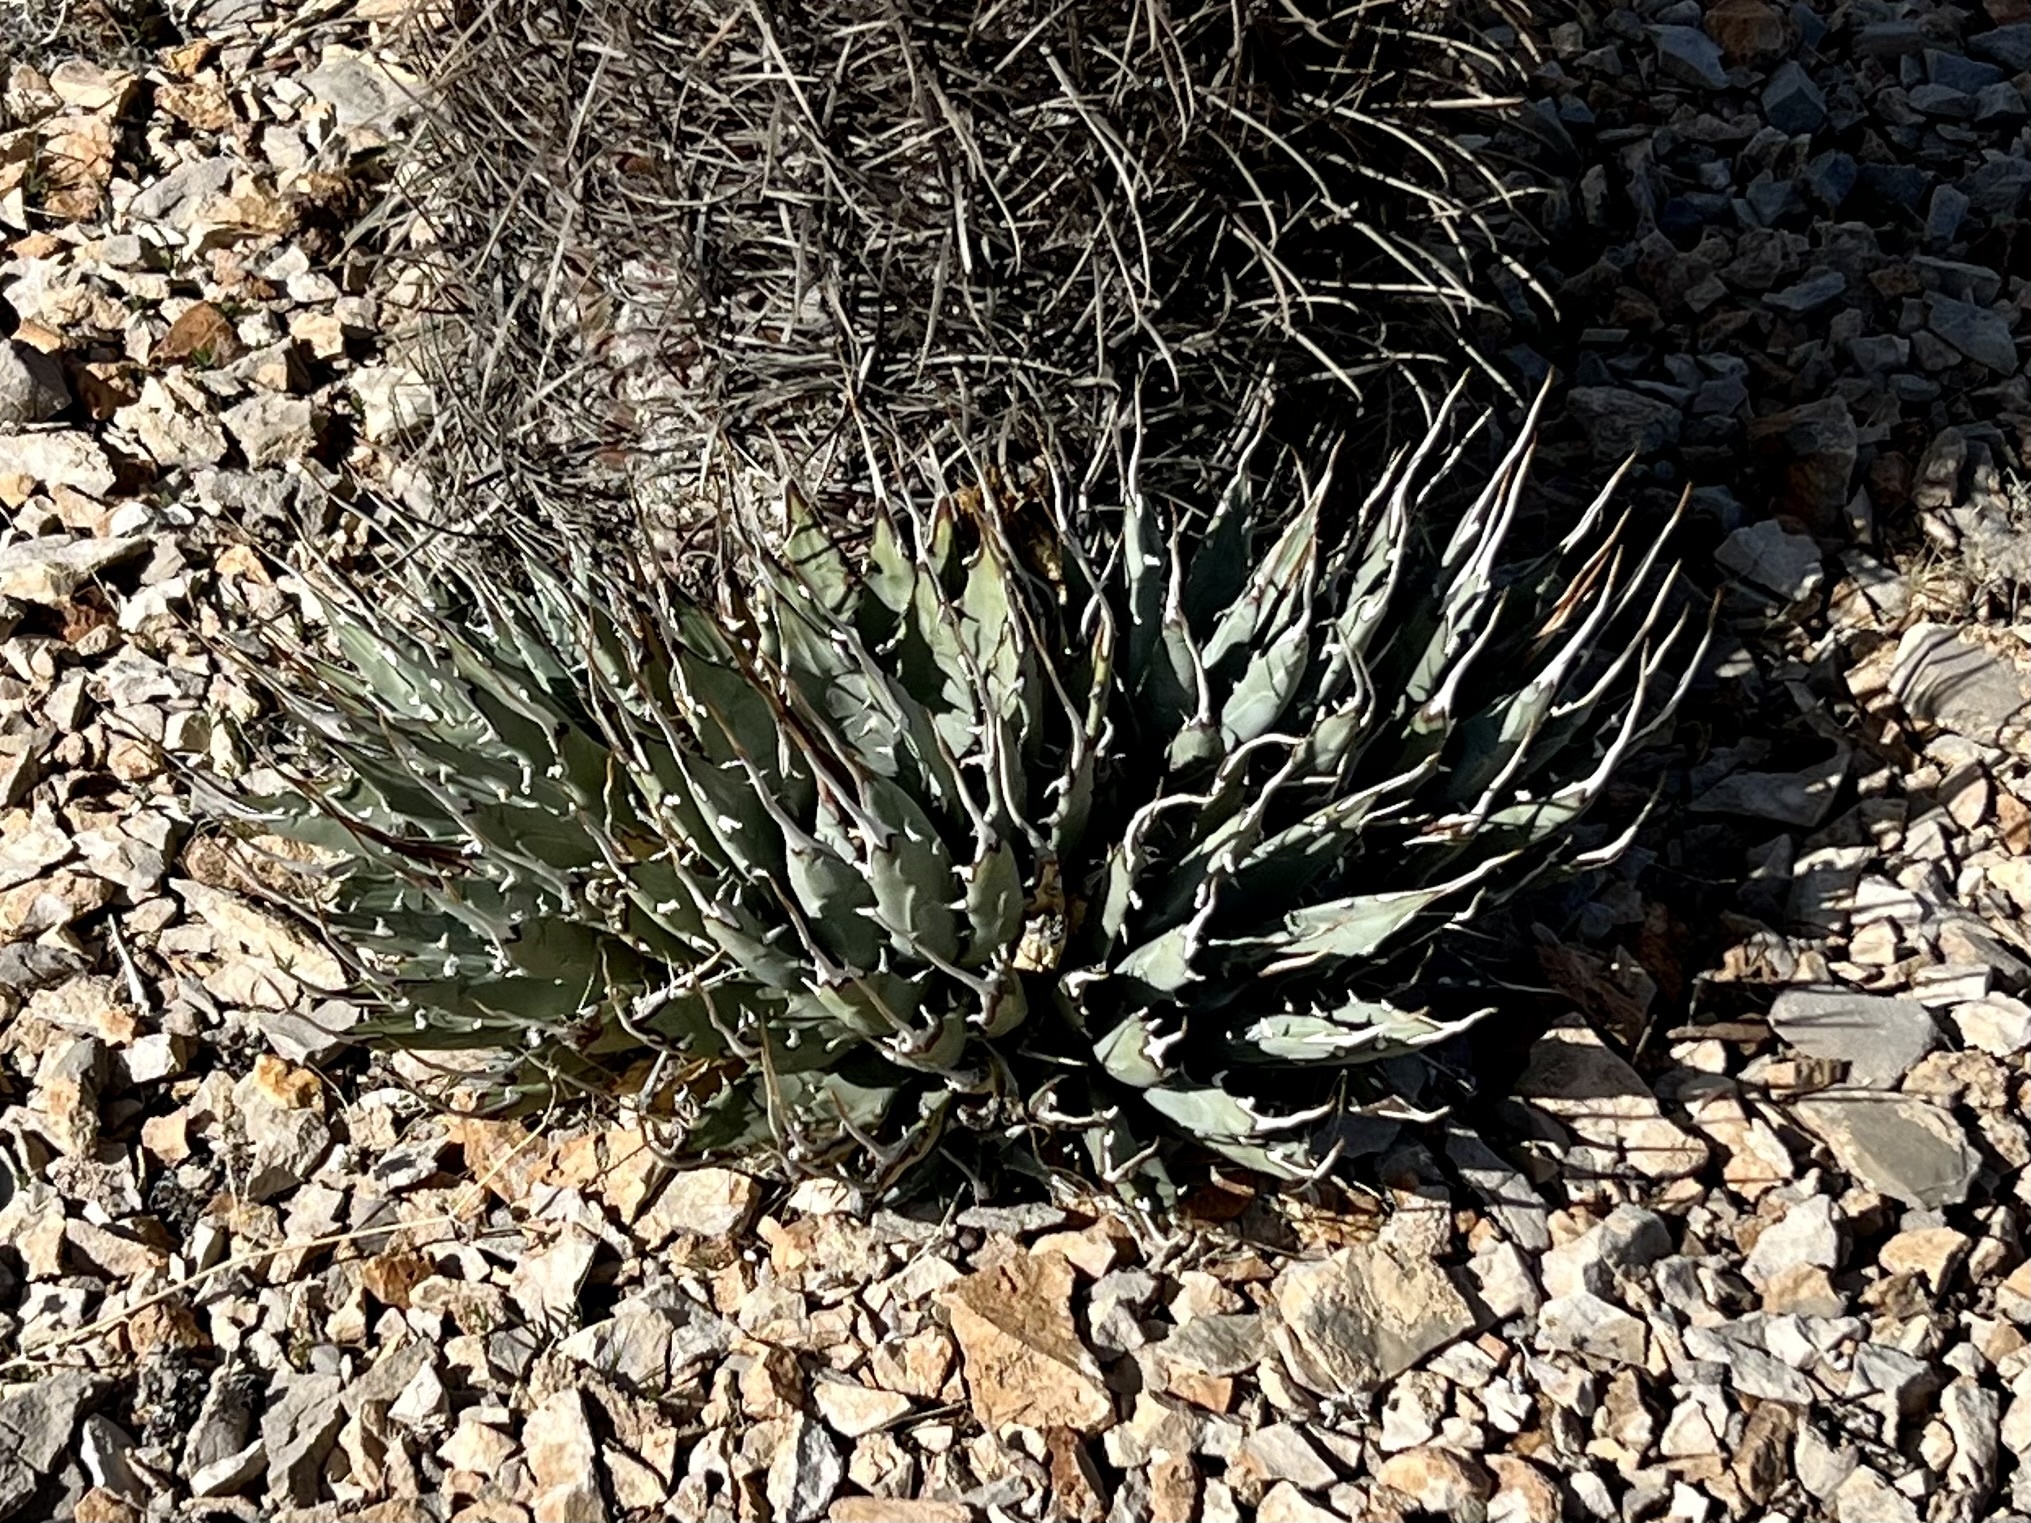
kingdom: Plantae
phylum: Tracheophyta
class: Liliopsida
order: Asparagales
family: Asparagaceae
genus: Agave
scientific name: Agave utahensis
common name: Utah agave
